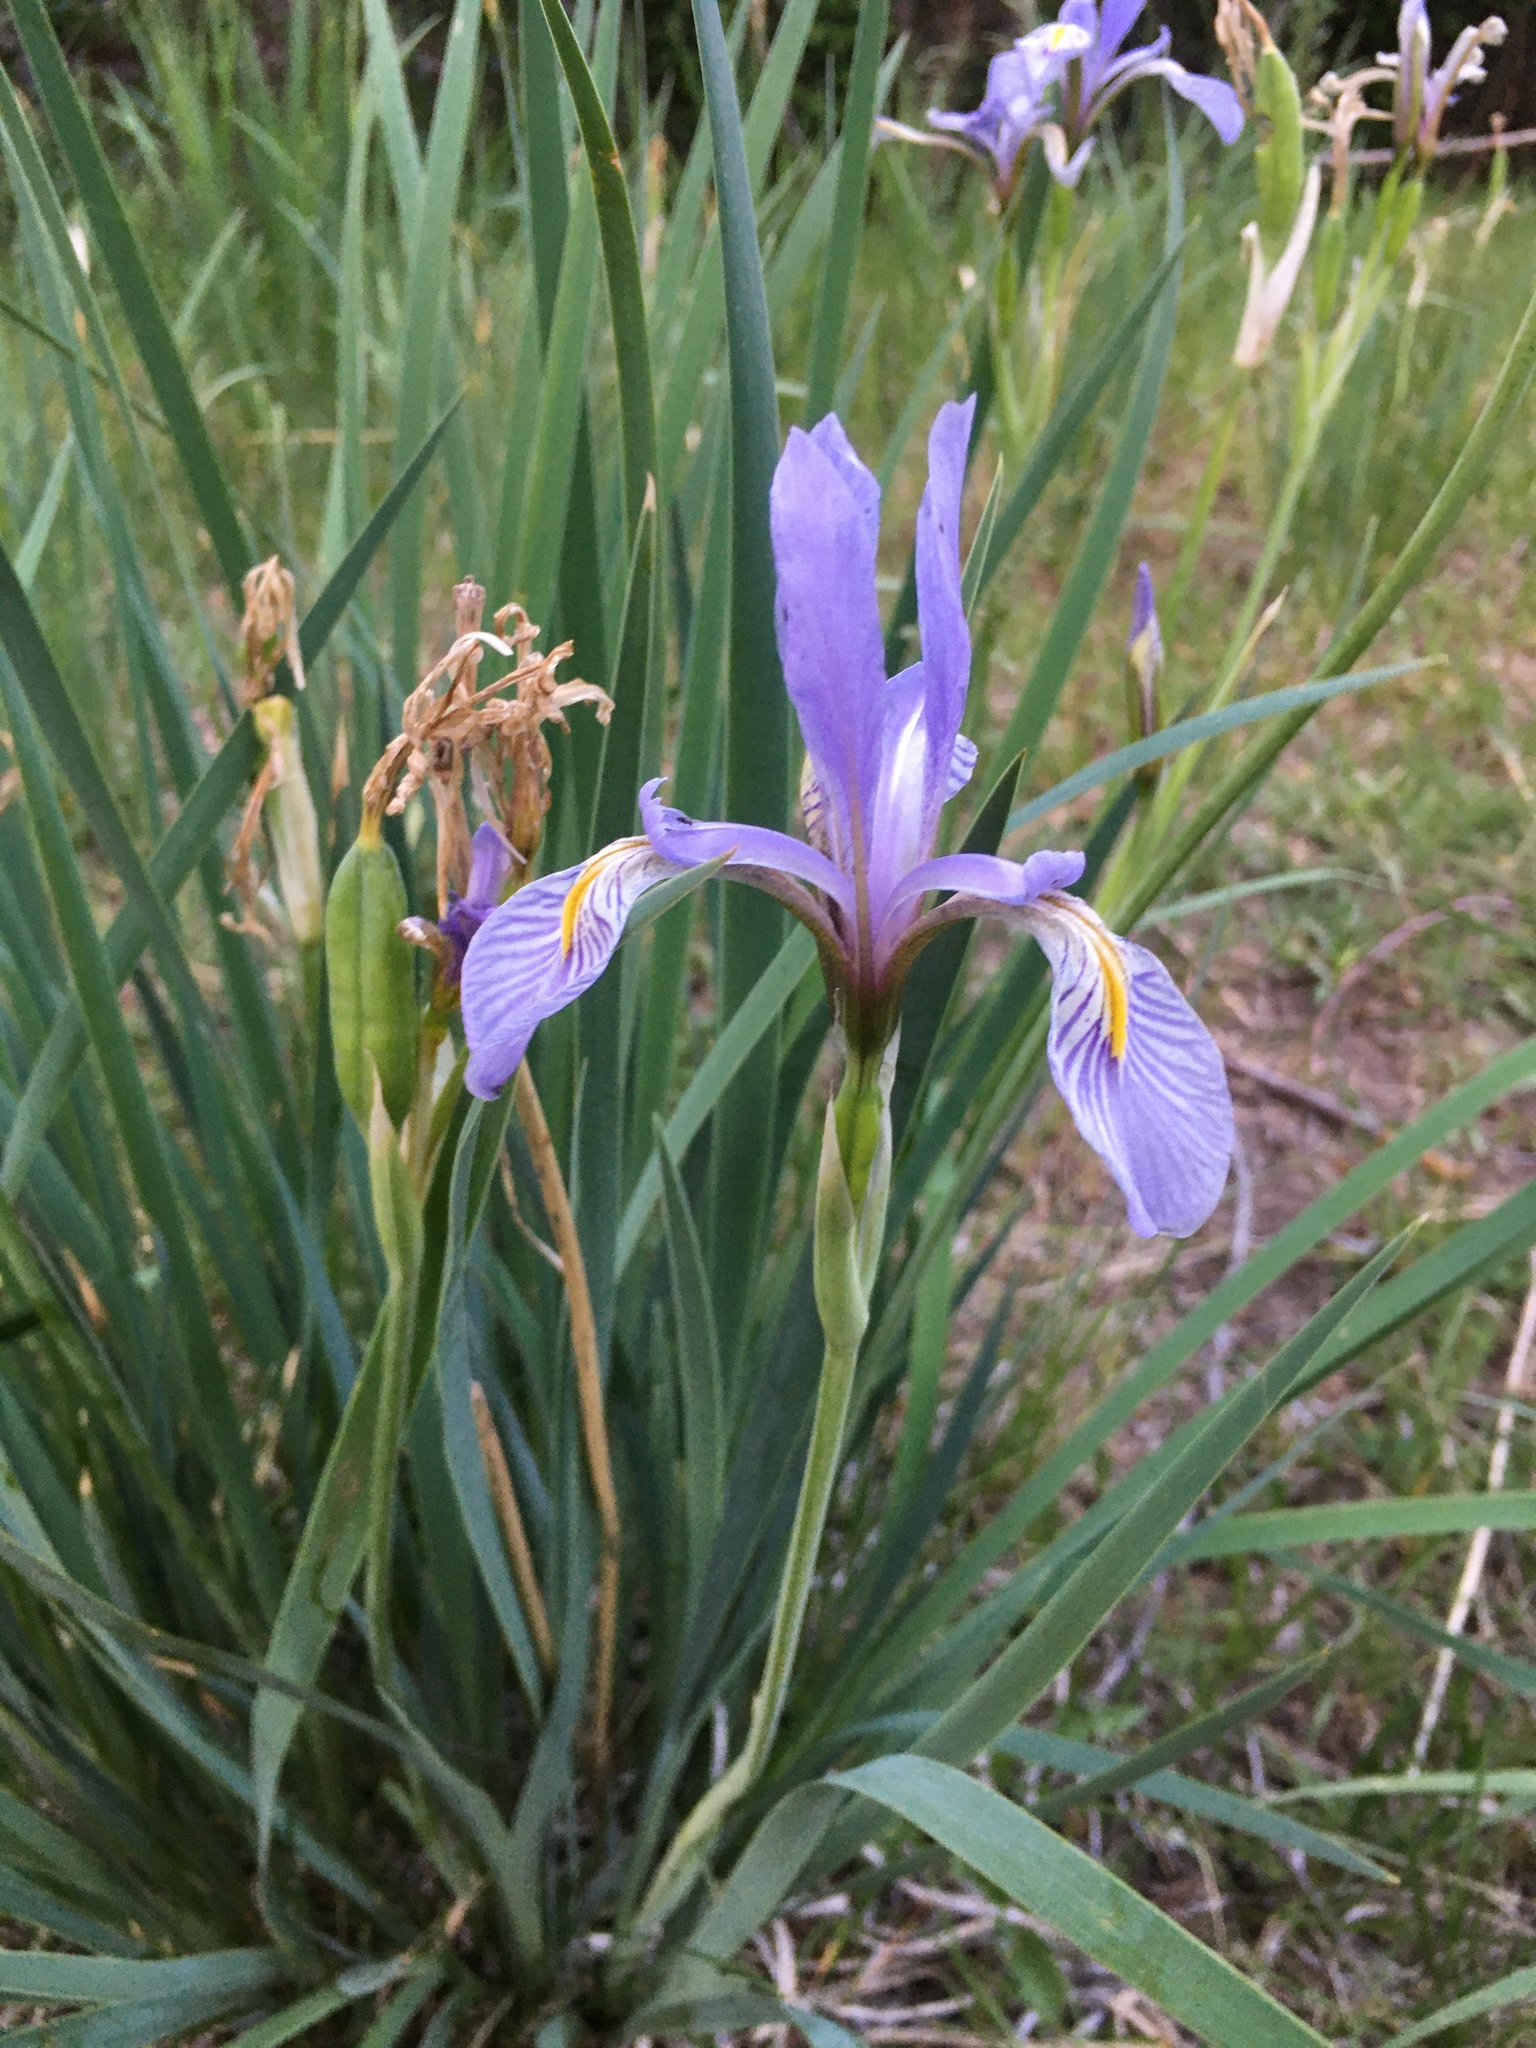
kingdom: Plantae
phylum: Tracheophyta
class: Liliopsida
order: Asparagales
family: Iridaceae
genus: Iris
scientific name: Iris missouriensis
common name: Rocky mountain iris
